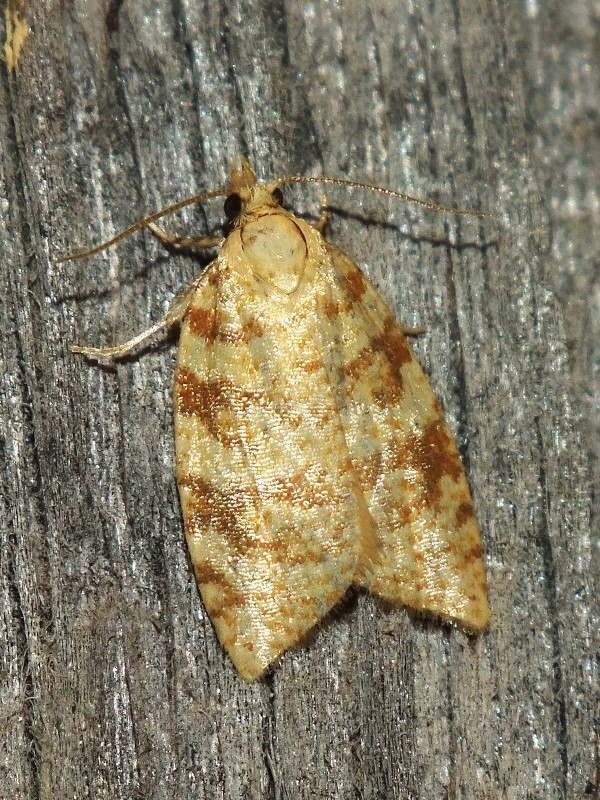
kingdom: Animalia
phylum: Arthropoda
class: Insecta
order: Lepidoptera
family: Tortricidae
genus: Aleimma
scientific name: Aleimma loeflingiana
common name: Yellow oak button
